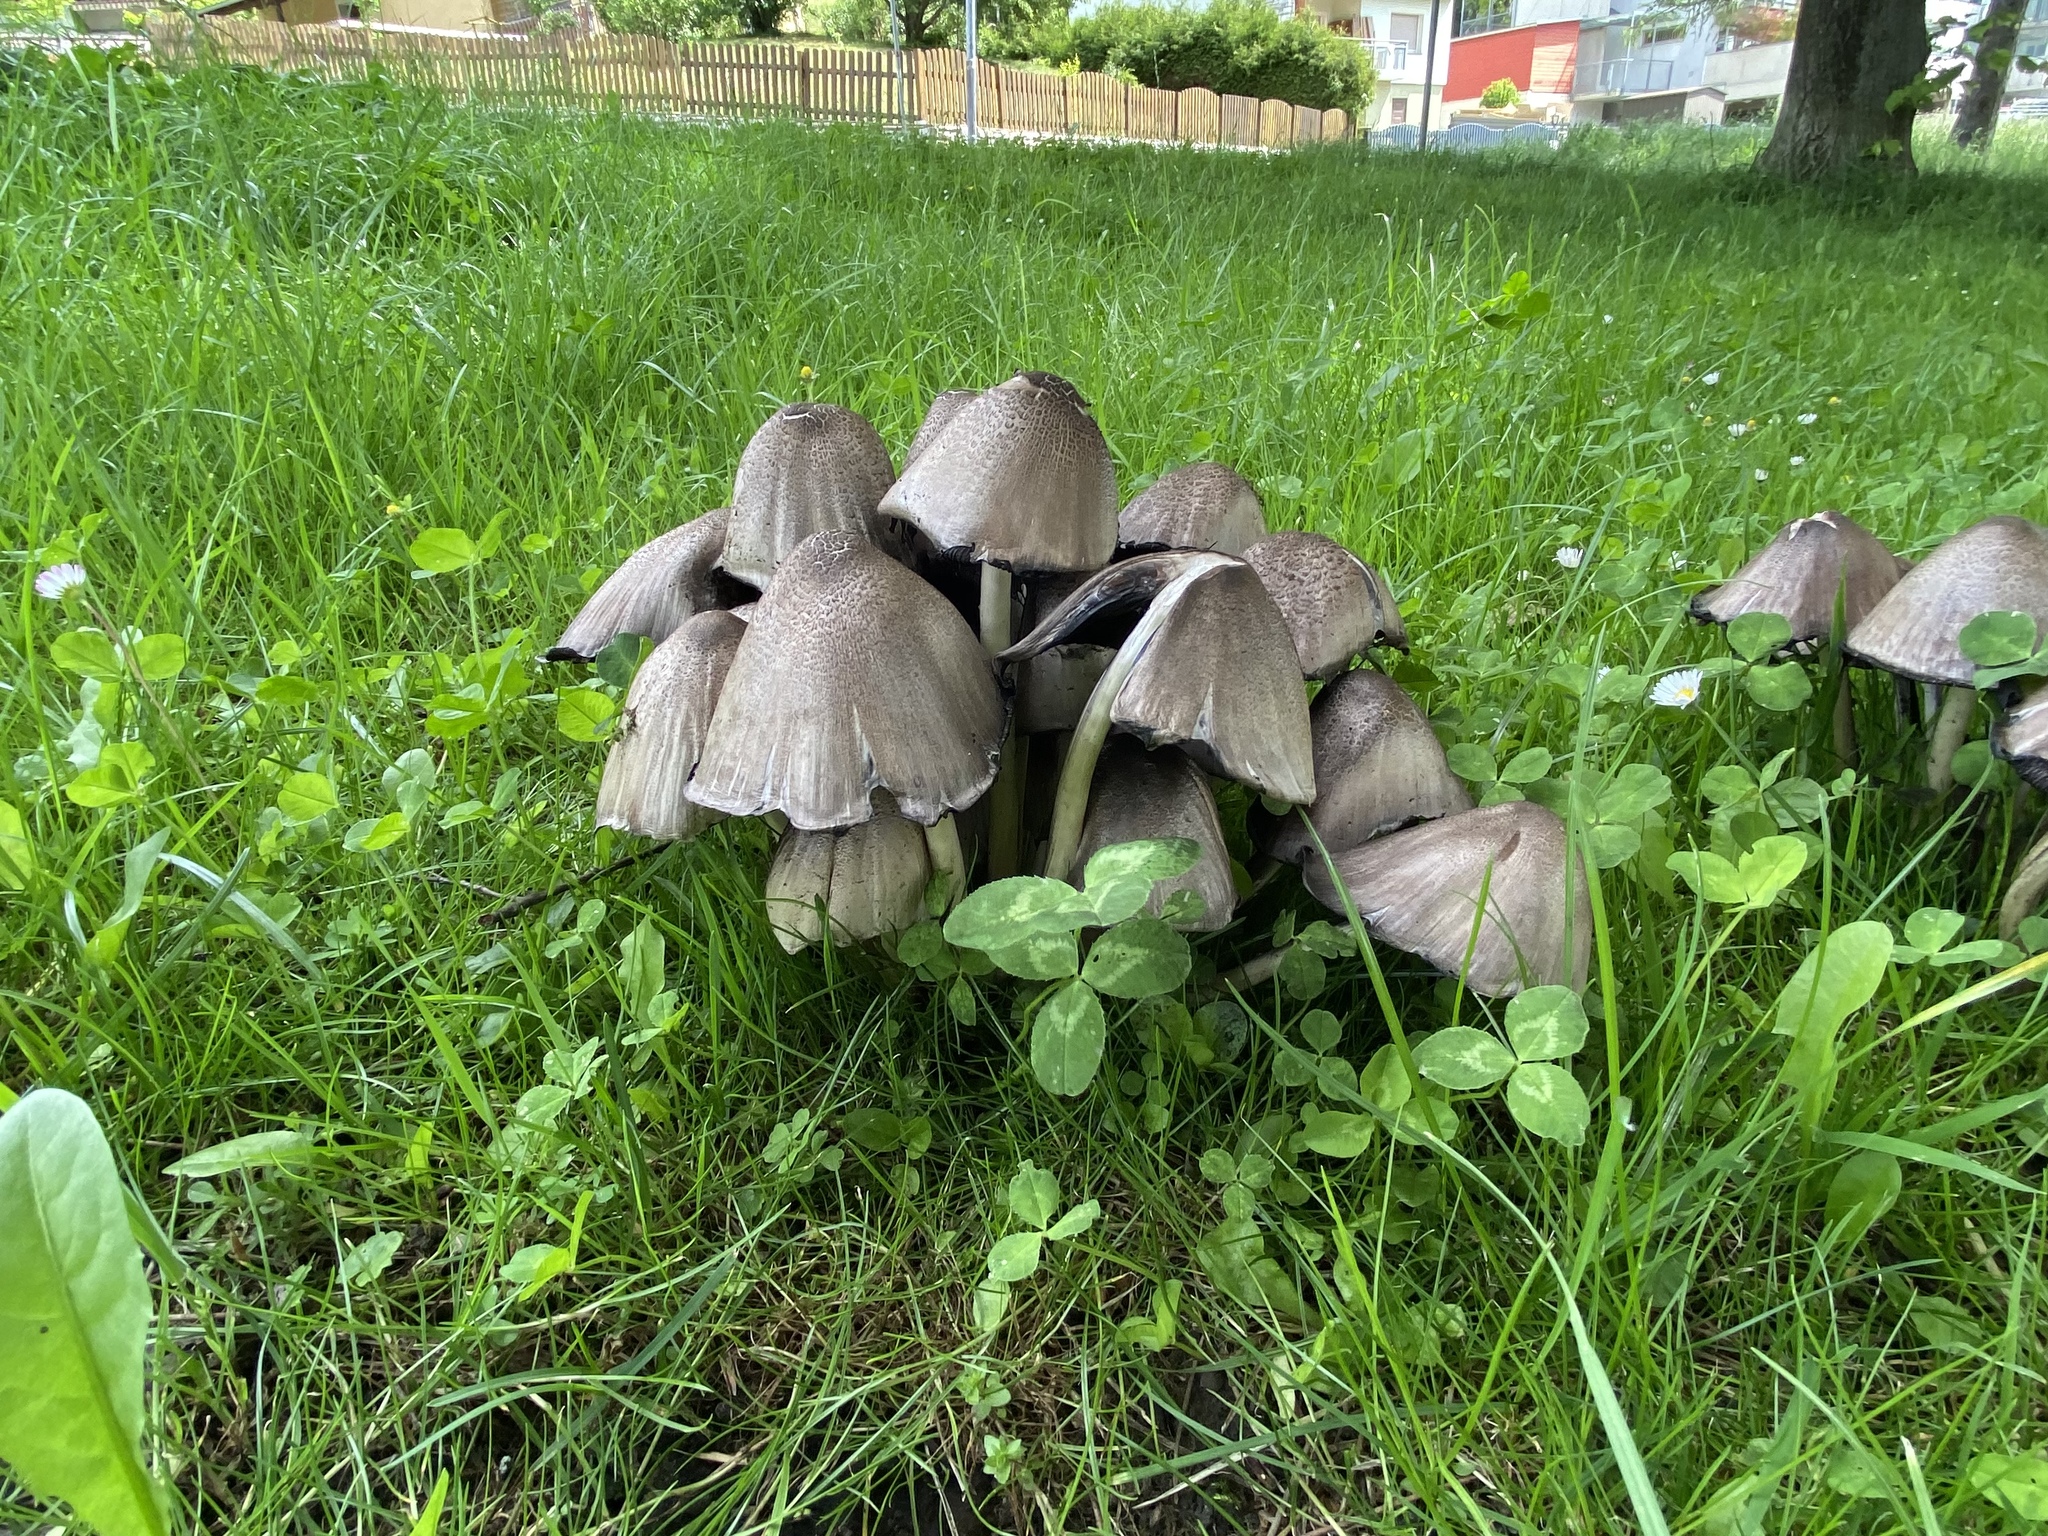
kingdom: Fungi
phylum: Basidiomycota
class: Agaricomycetes
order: Agaricales
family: Psathyrellaceae
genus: Coprinopsis
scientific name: Coprinopsis atramentaria
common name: Common ink-cap
